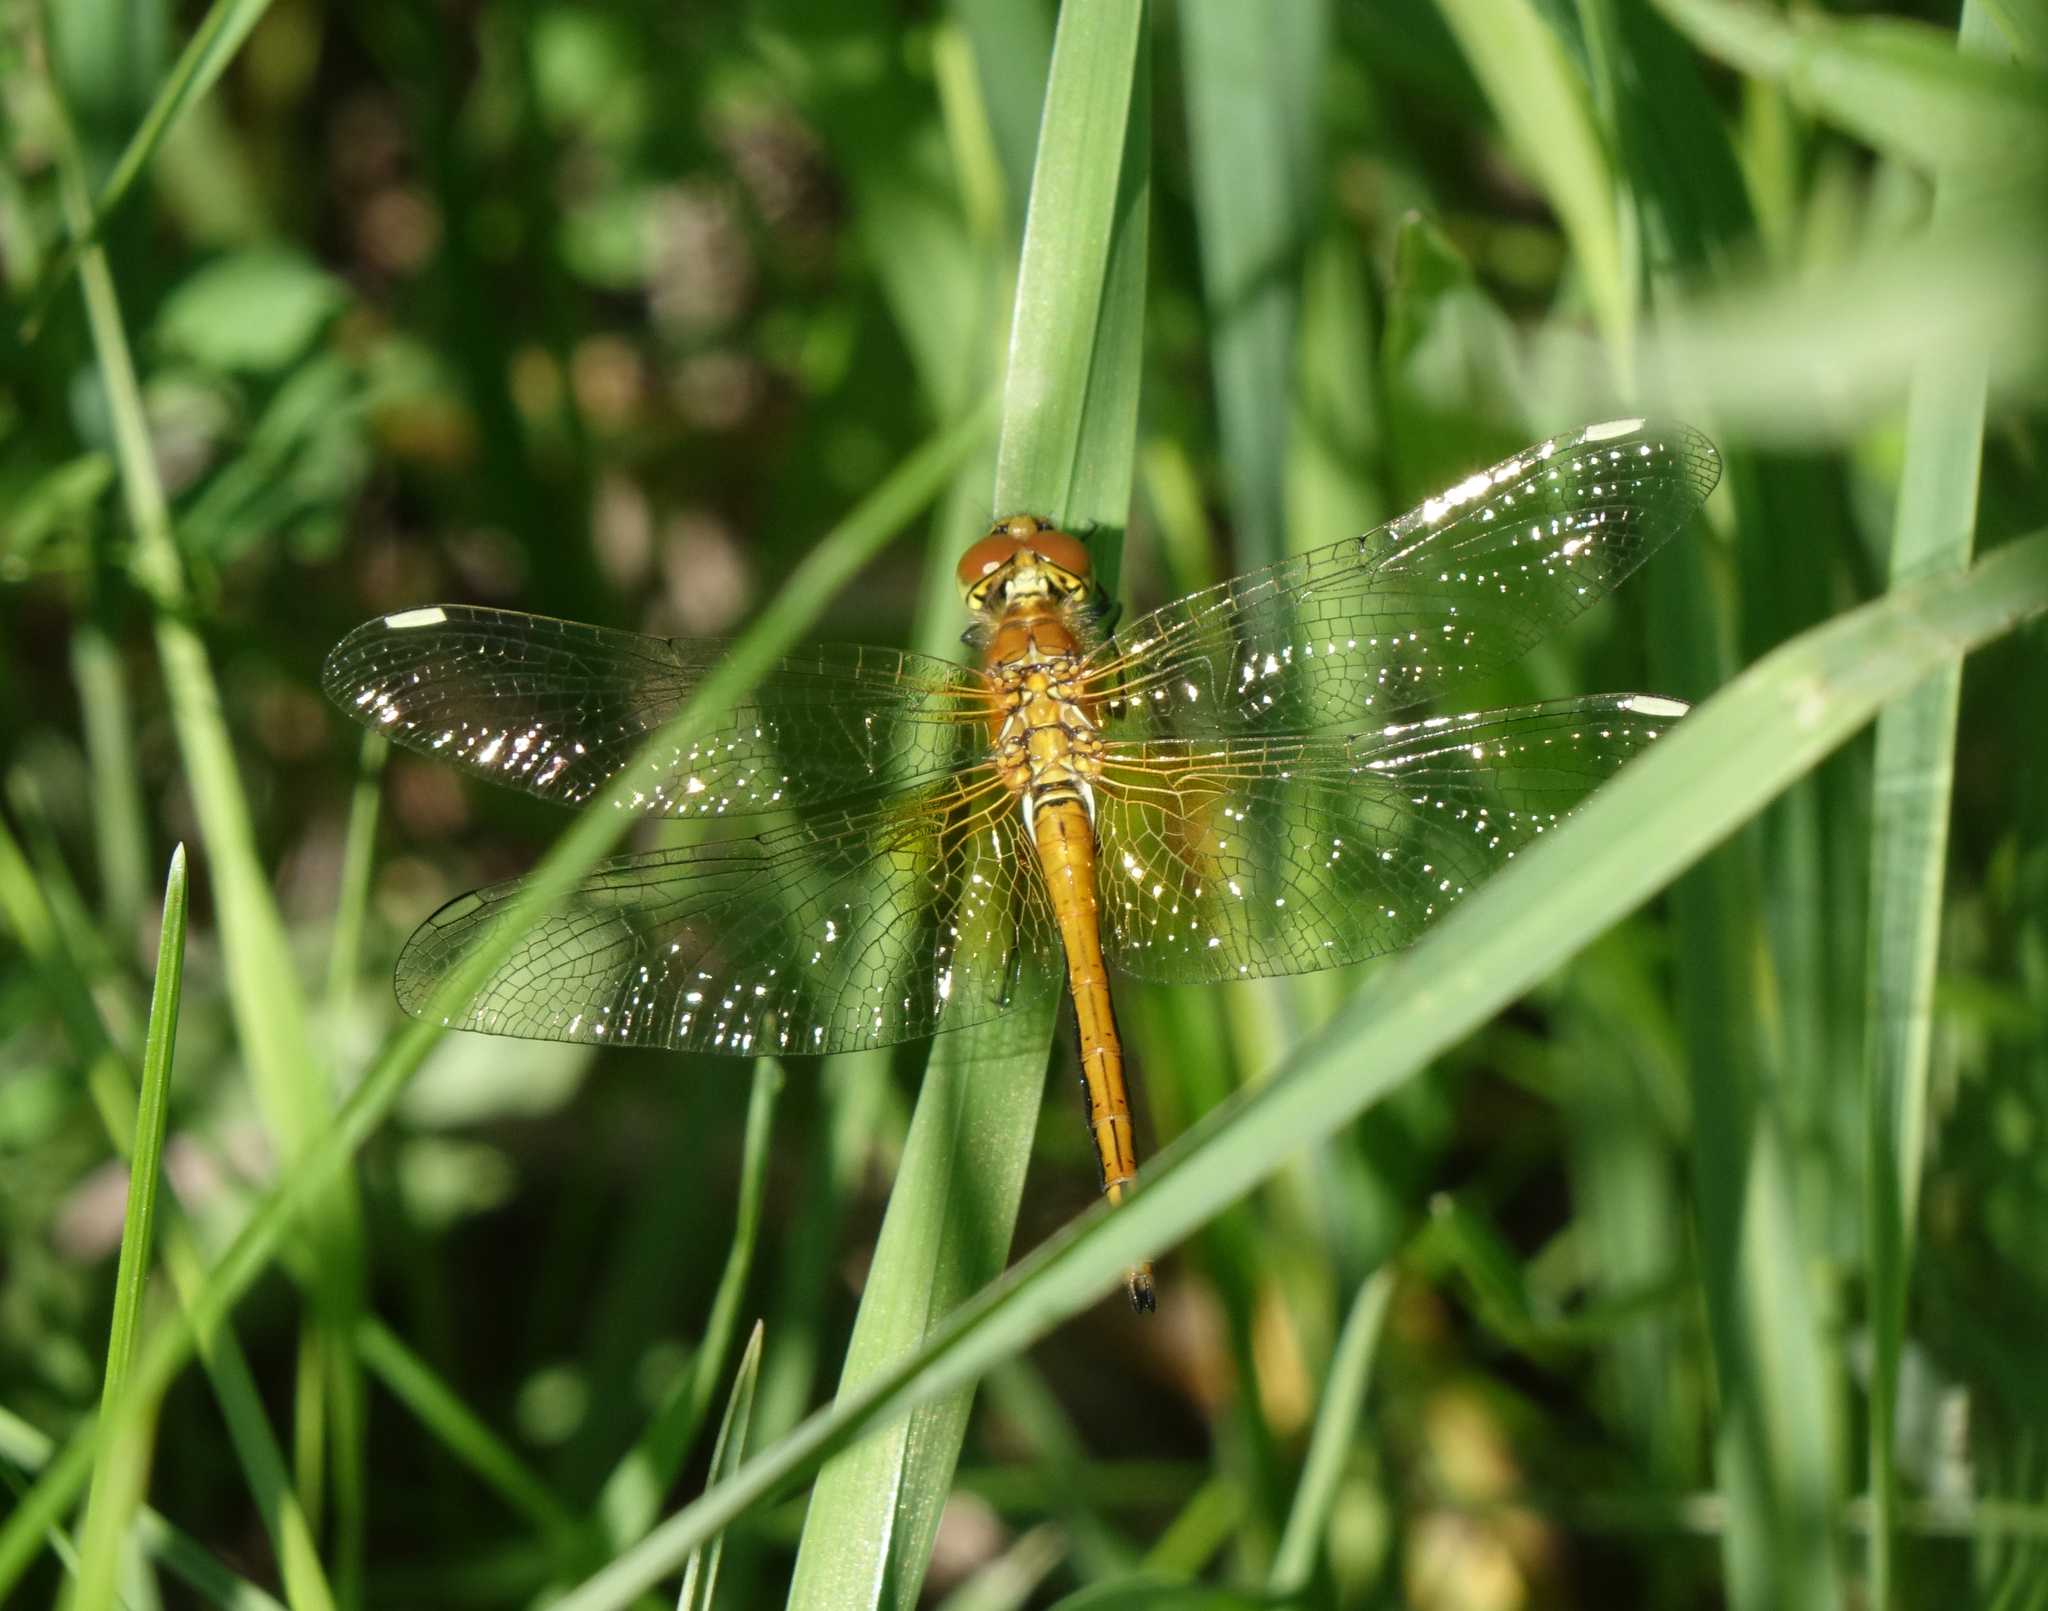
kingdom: Animalia
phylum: Arthropoda
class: Insecta
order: Odonata
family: Libellulidae
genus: Sympetrum
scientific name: Sympetrum flaveolum
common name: Yellow-winged darter
